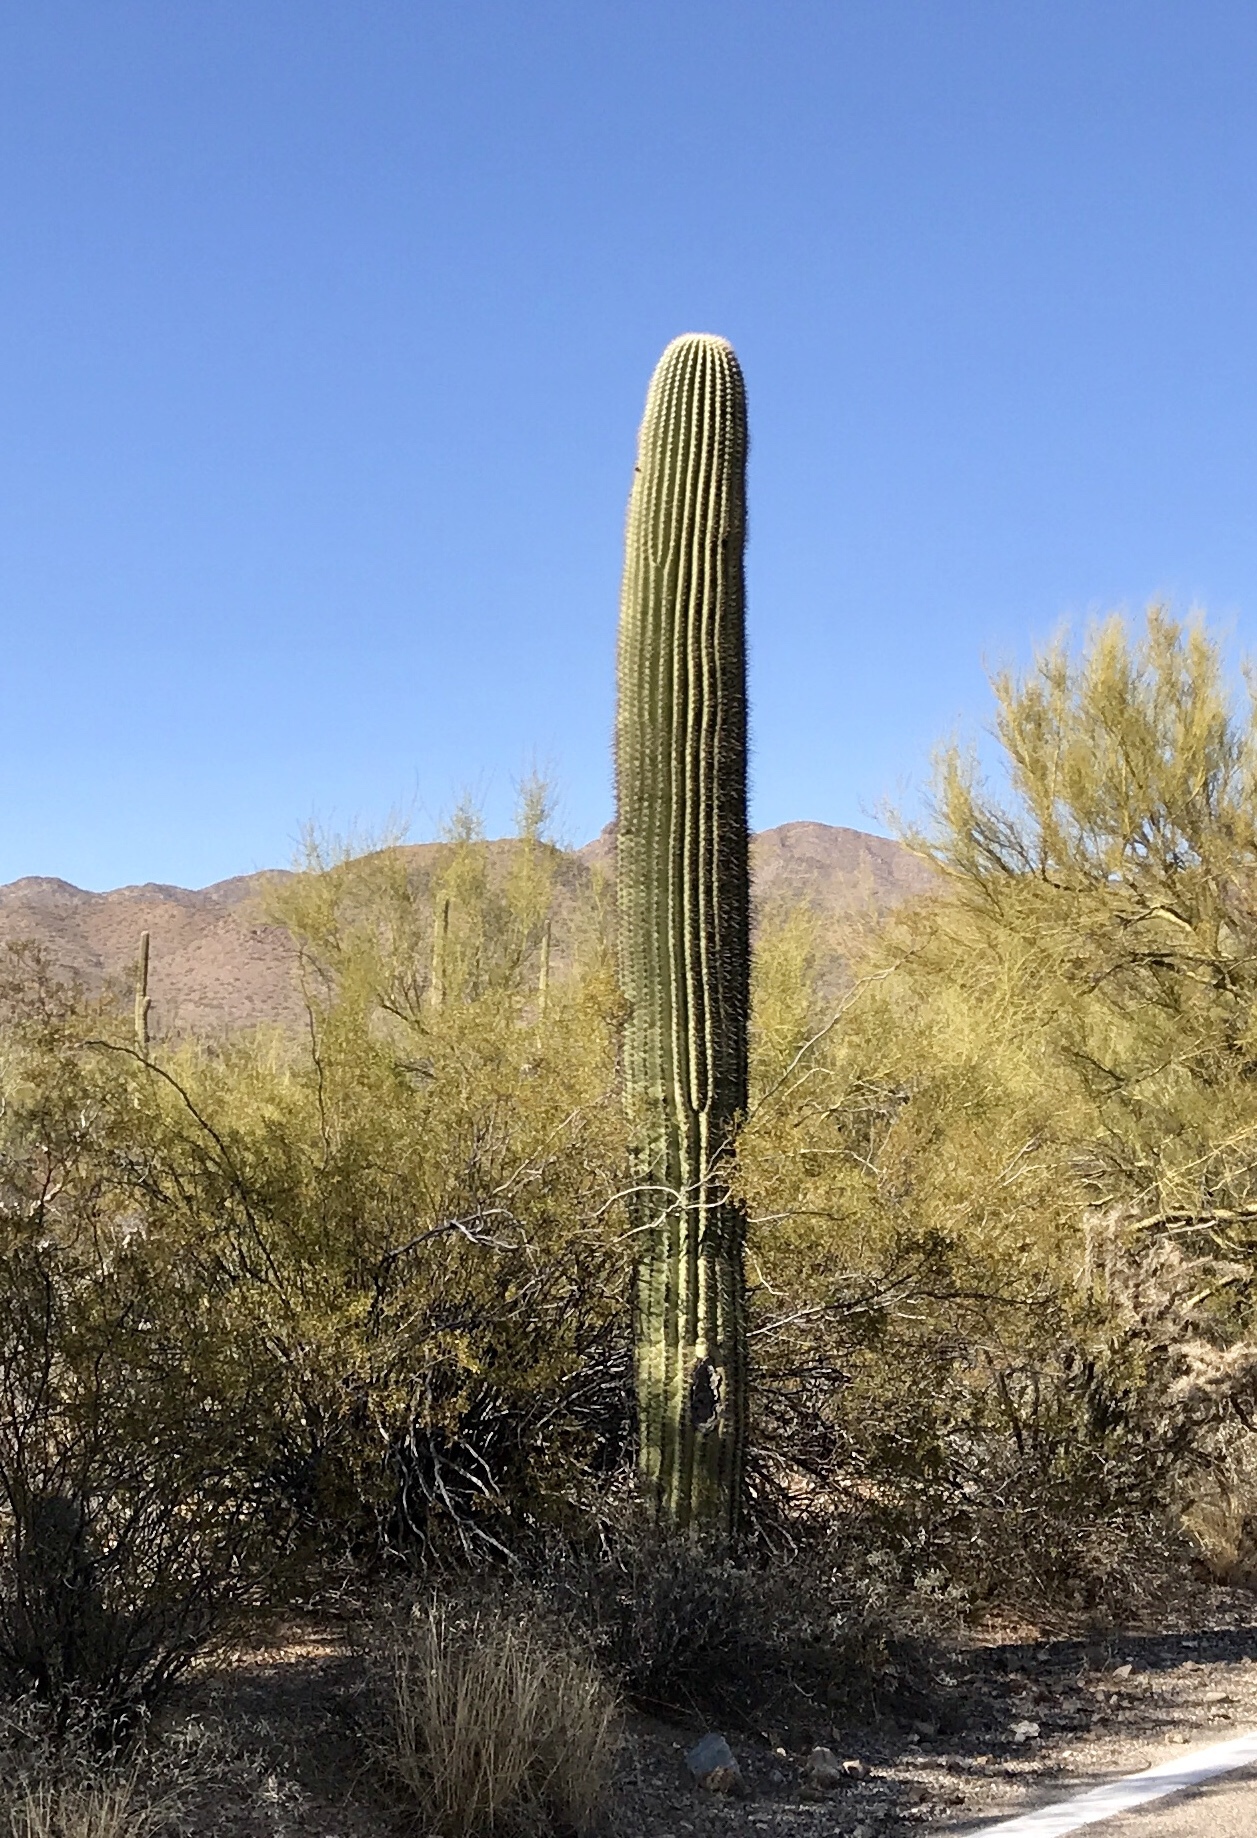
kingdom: Plantae
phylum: Tracheophyta
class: Magnoliopsida
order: Caryophyllales
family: Cactaceae
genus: Carnegiea
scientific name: Carnegiea gigantea
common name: Saguaro
